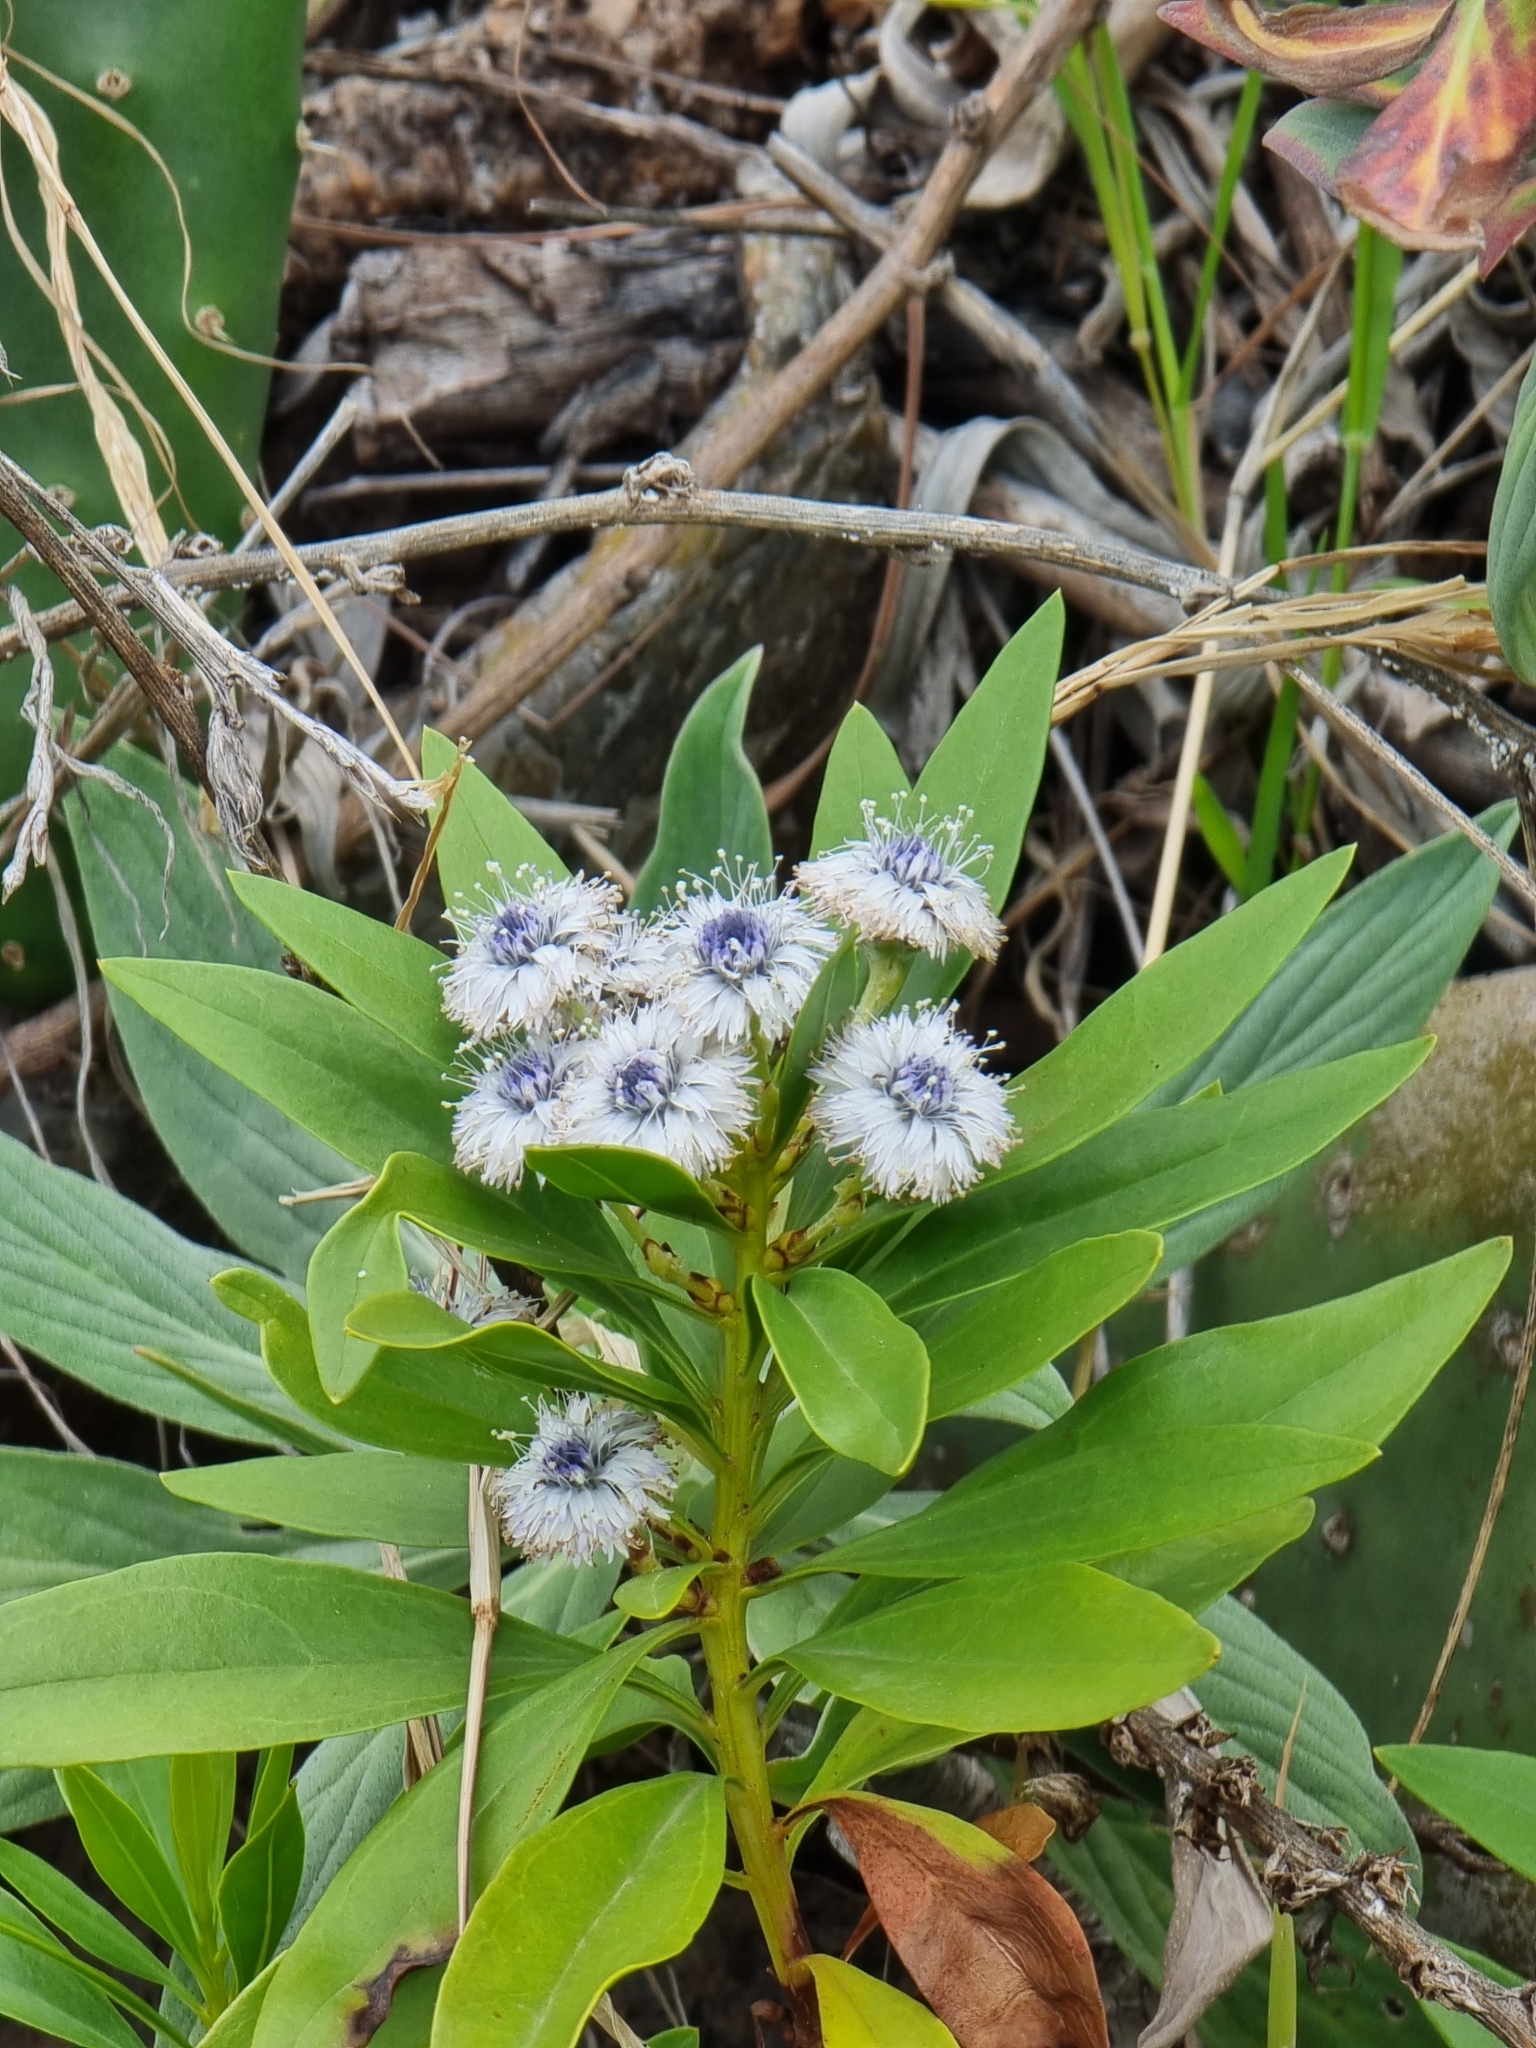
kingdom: Plantae
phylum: Tracheophyta
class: Magnoliopsida
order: Lamiales
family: Plantaginaceae
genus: Globularia
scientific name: Globularia salicina
